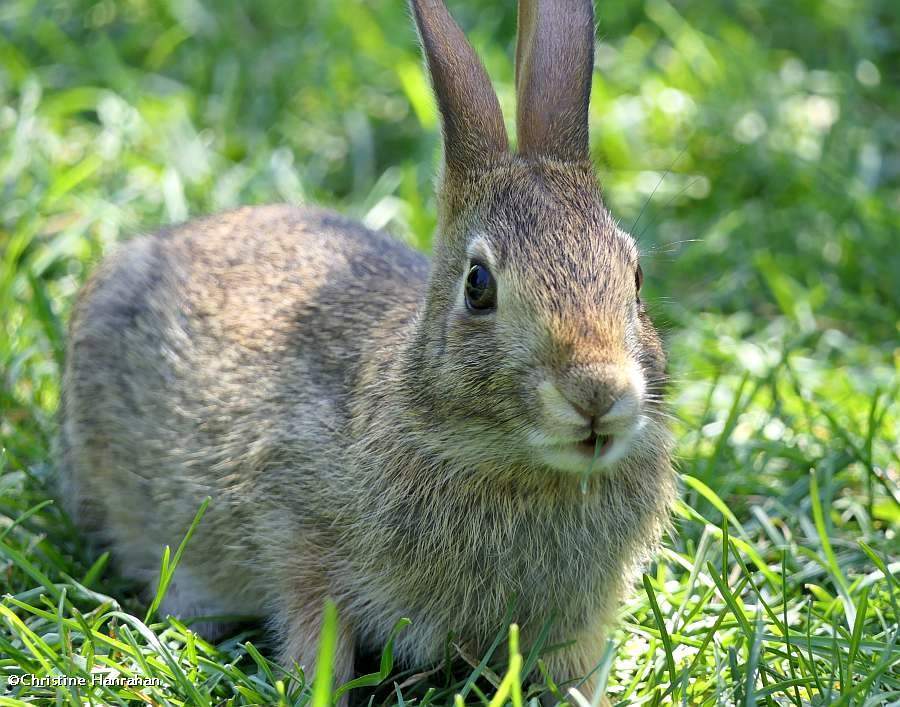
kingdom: Animalia
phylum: Chordata
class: Mammalia
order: Lagomorpha
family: Leporidae
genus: Sylvilagus
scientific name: Sylvilagus floridanus
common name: Eastern cottontail
